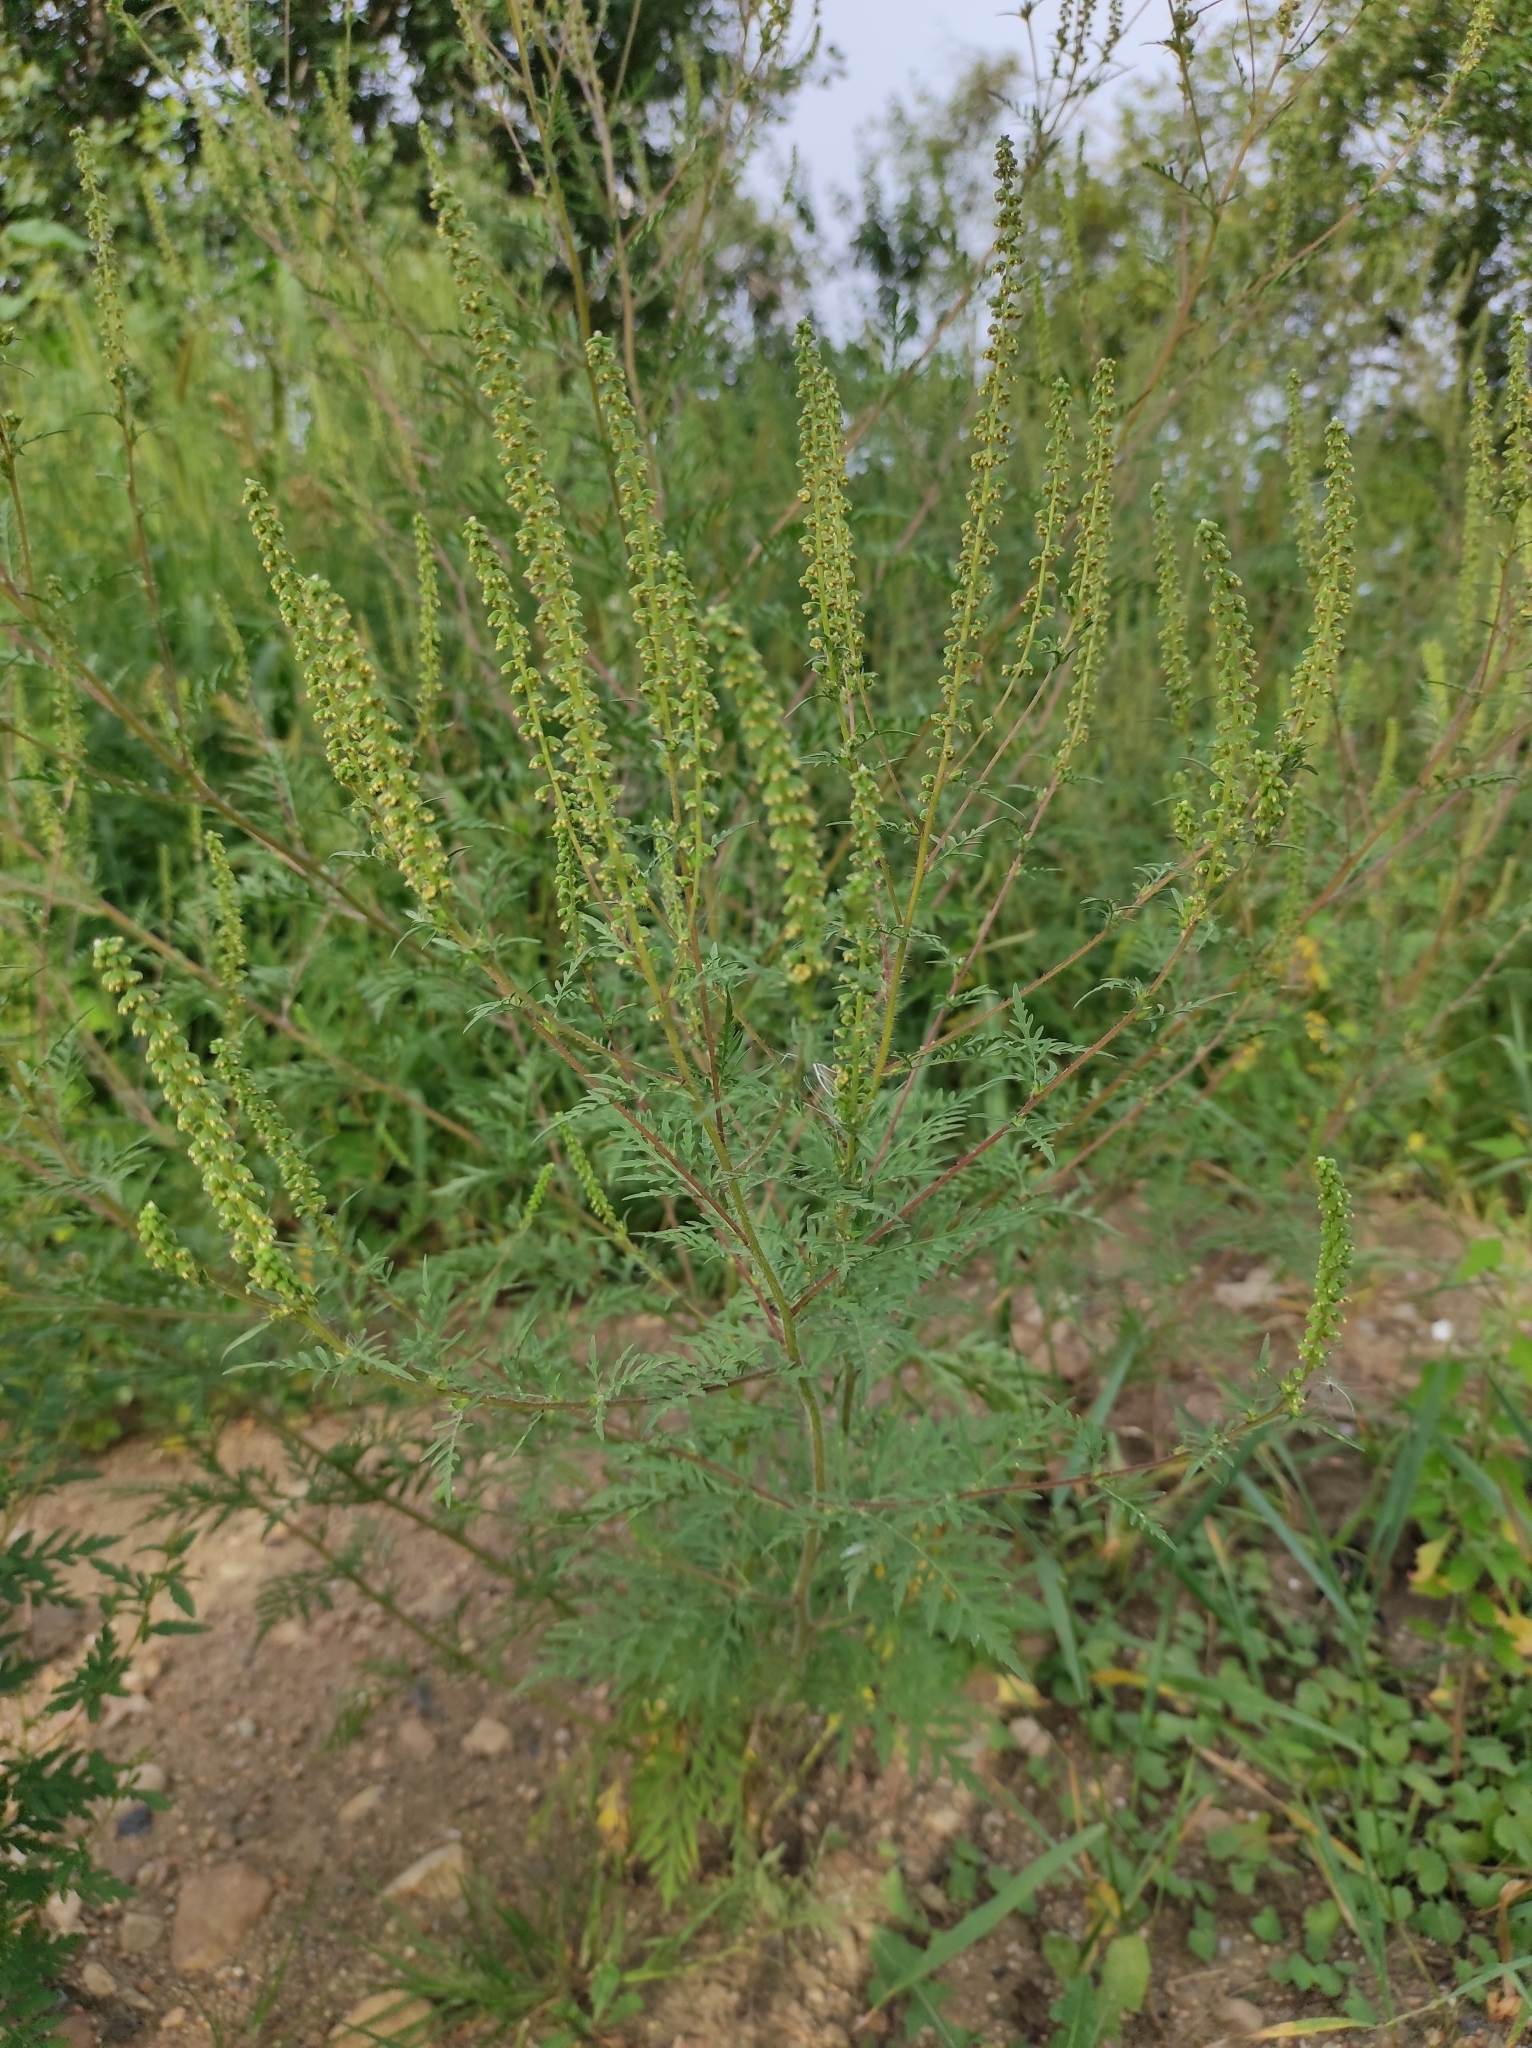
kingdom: Plantae
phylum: Tracheophyta
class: Magnoliopsida
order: Asterales
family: Asteraceae
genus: Ambrosia
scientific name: Ambrosia artemisiifolia
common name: Annual ragweed
